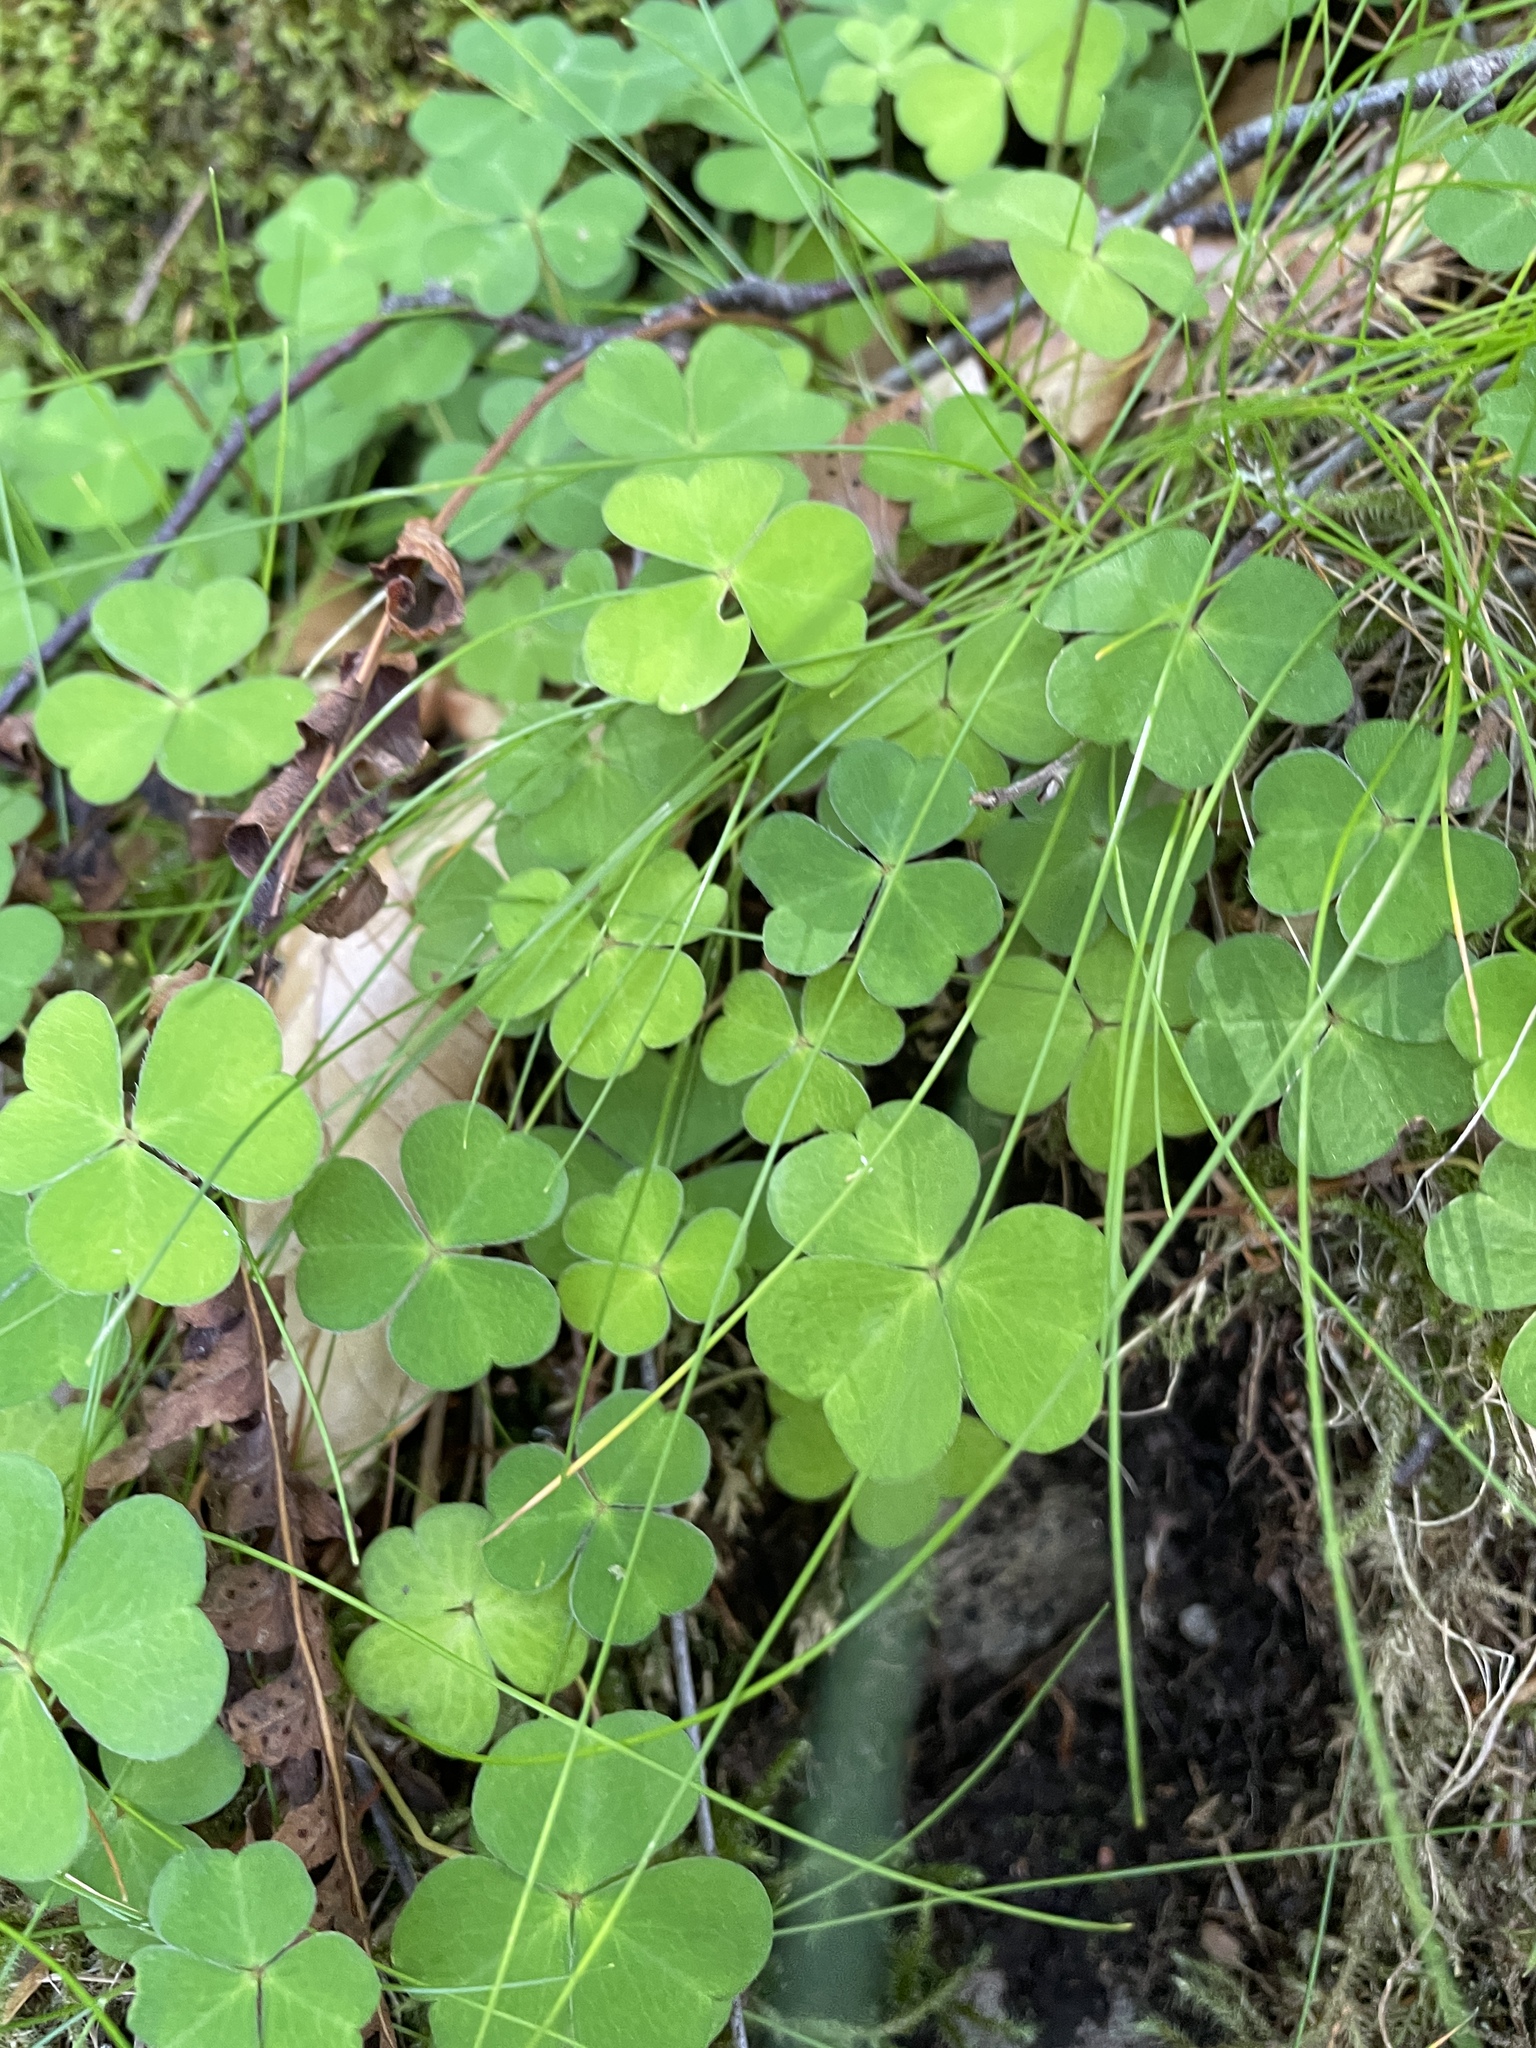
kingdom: Plantae
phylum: Tracheophyta
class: Magnoliopsida
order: Oxalidales
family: Oxalidaceae
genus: Oxalis
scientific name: Oxalis acetosella
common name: Wood-sorrel
